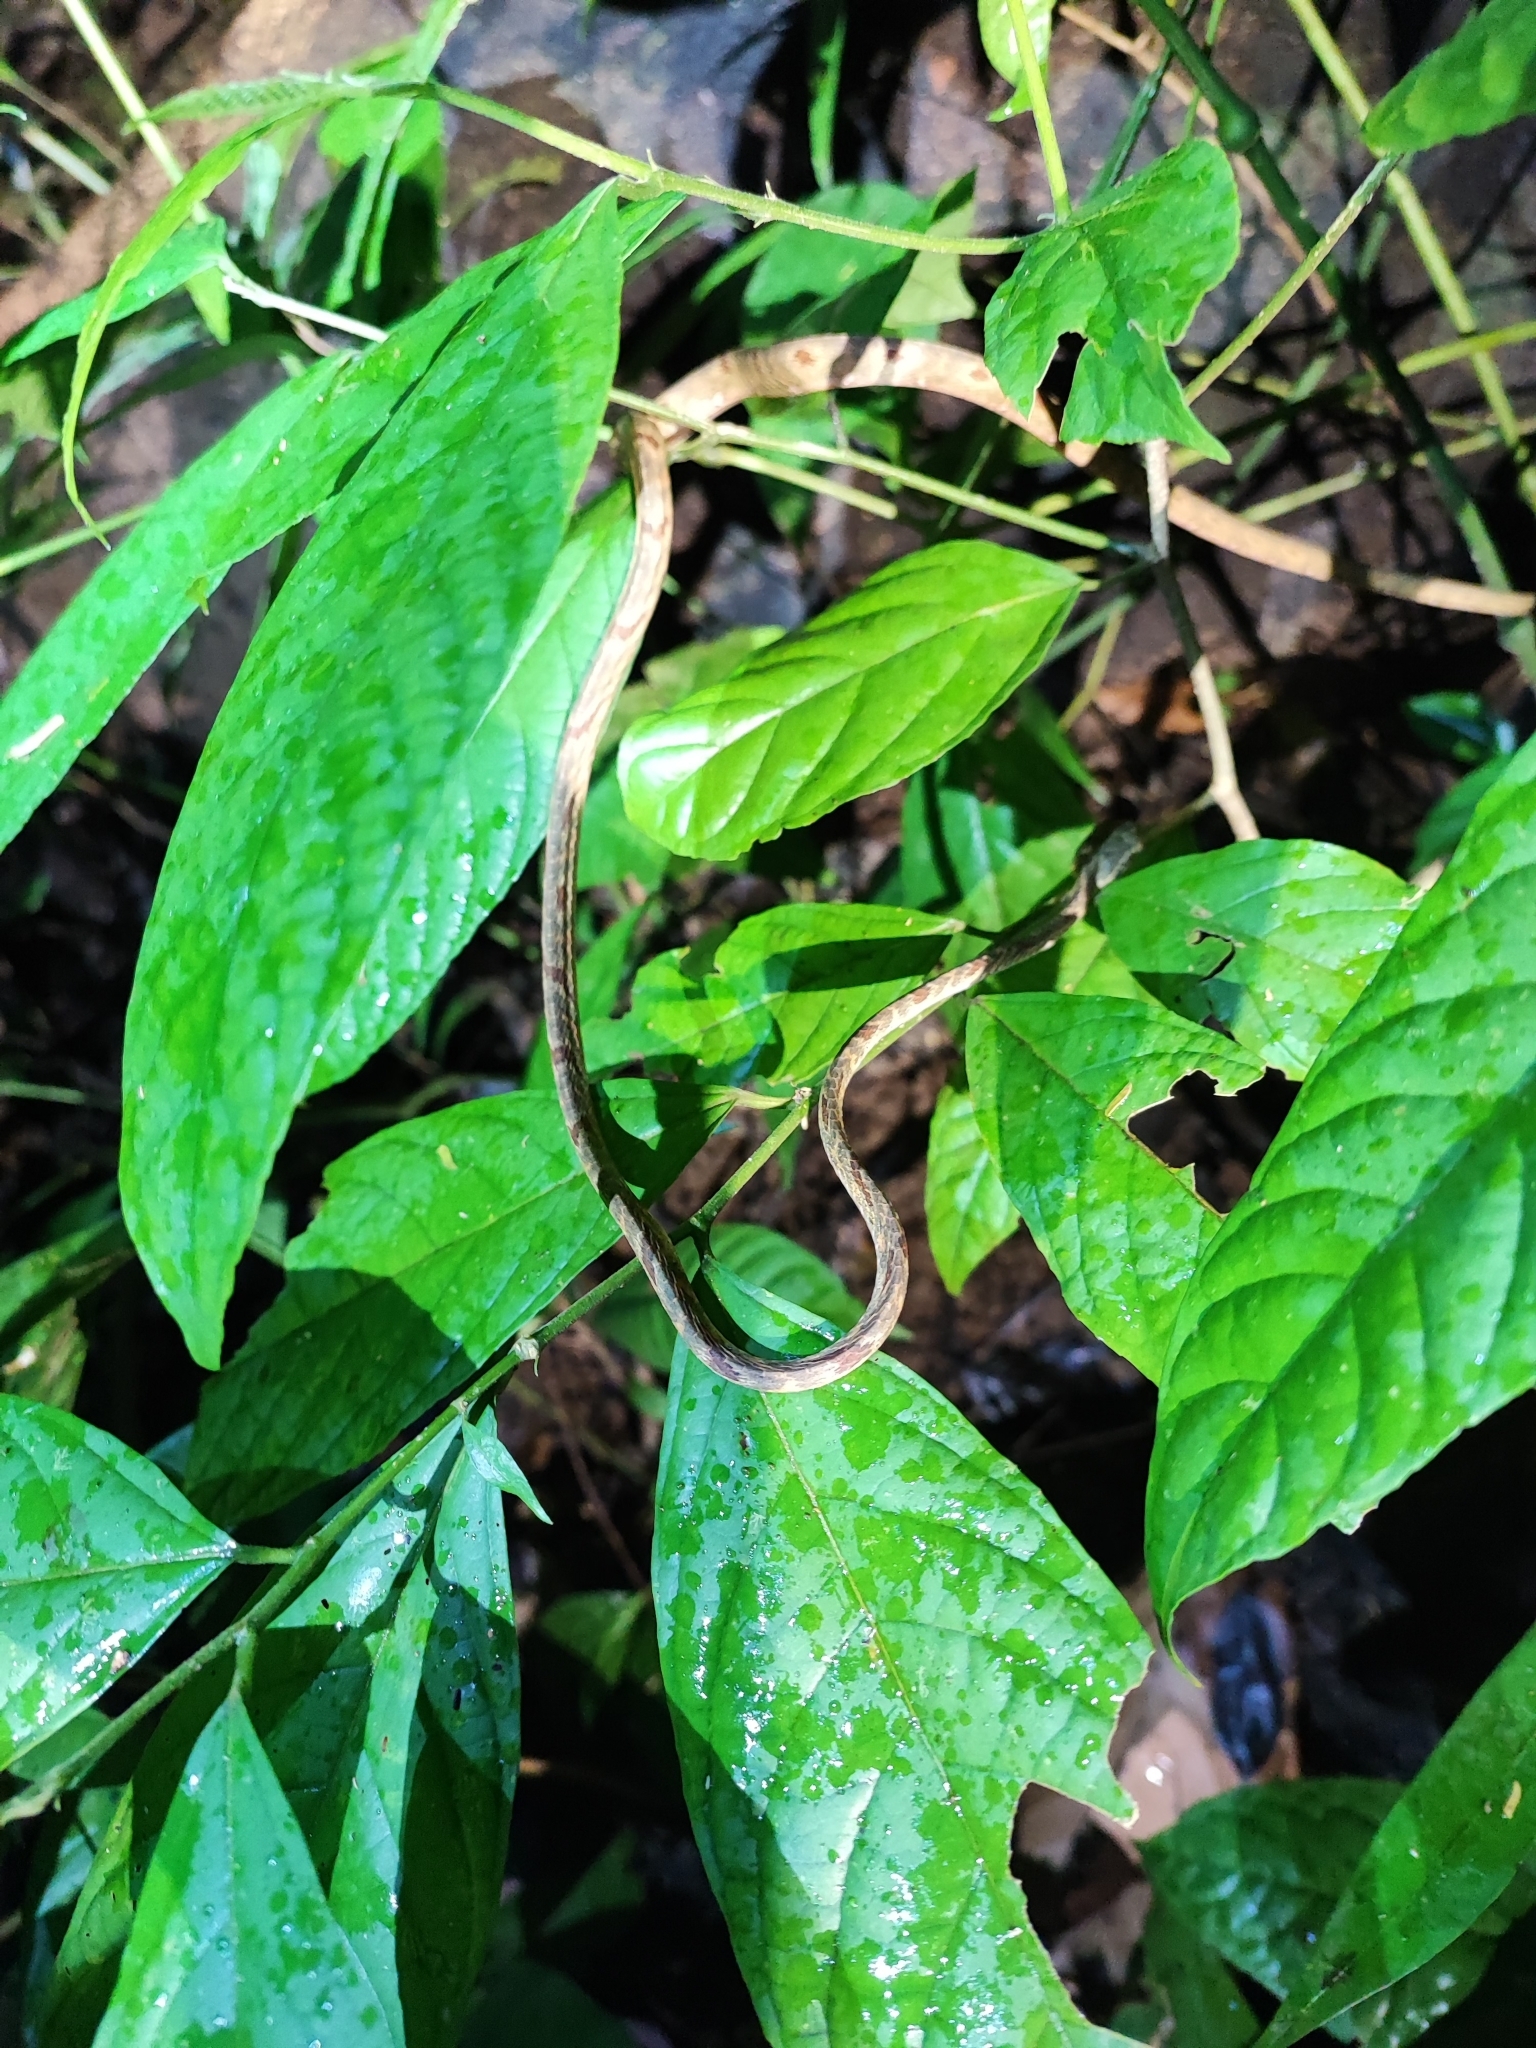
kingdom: Animalia
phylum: Chordata
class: Squamata
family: Colubridae
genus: Boiga
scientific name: Boiga bengkuluensis
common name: Bengkulu cat snake
